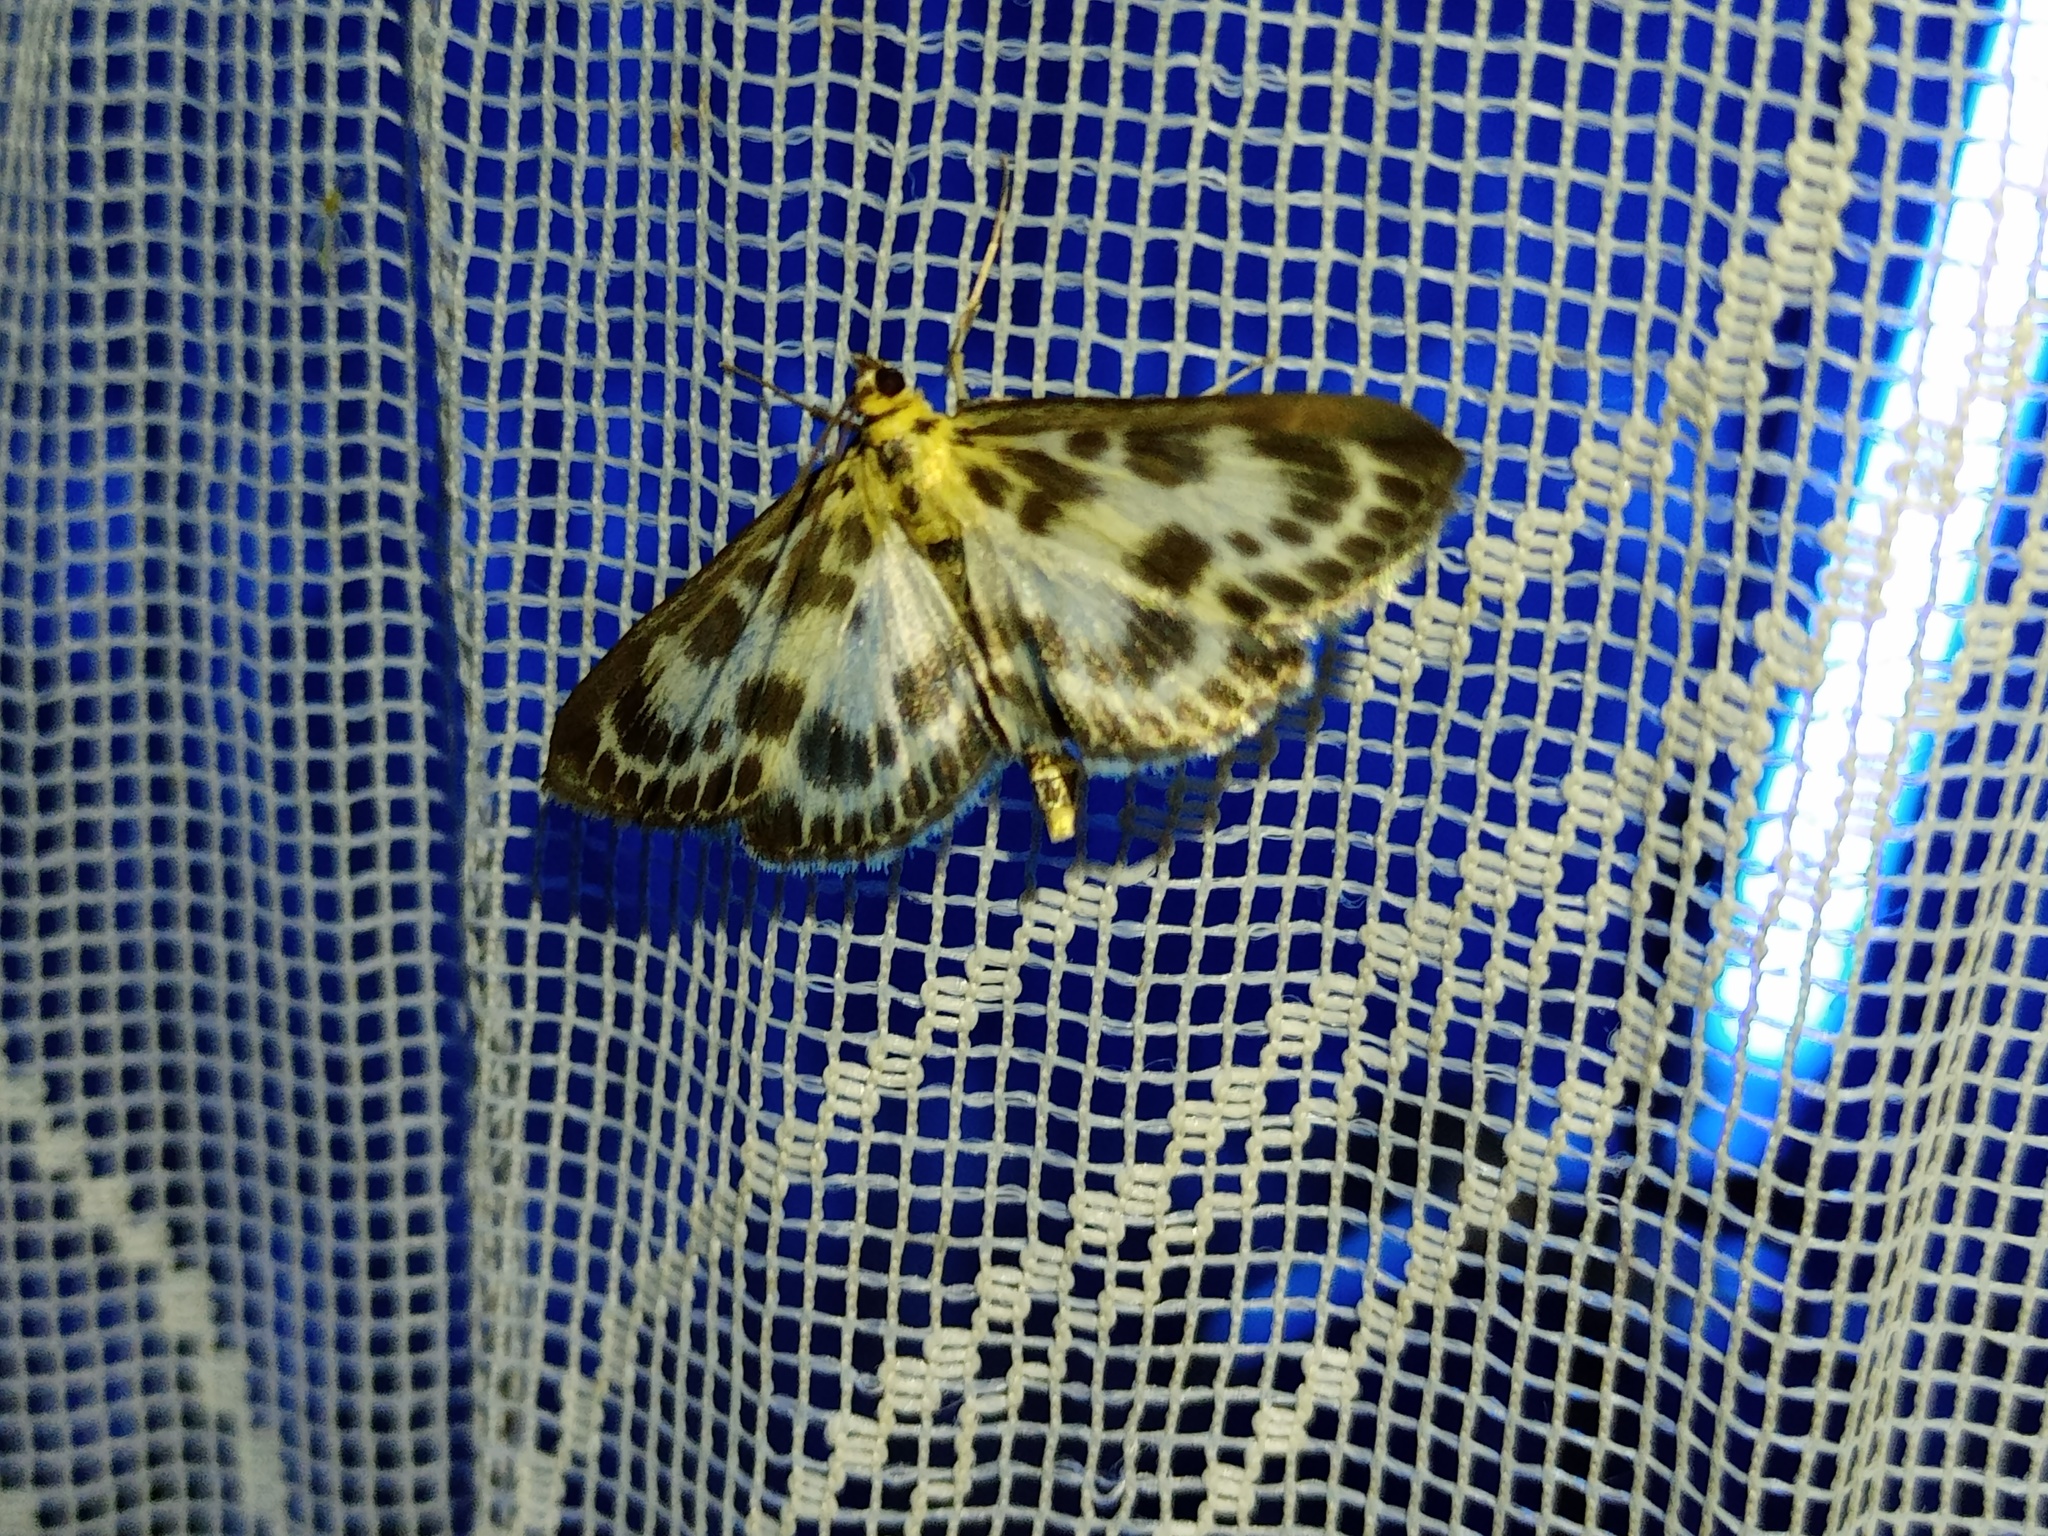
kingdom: Animalia
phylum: Arthropoda
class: Insecta
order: Lepidoptera
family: Crambidae
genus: Anania
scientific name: Anania hortulata
